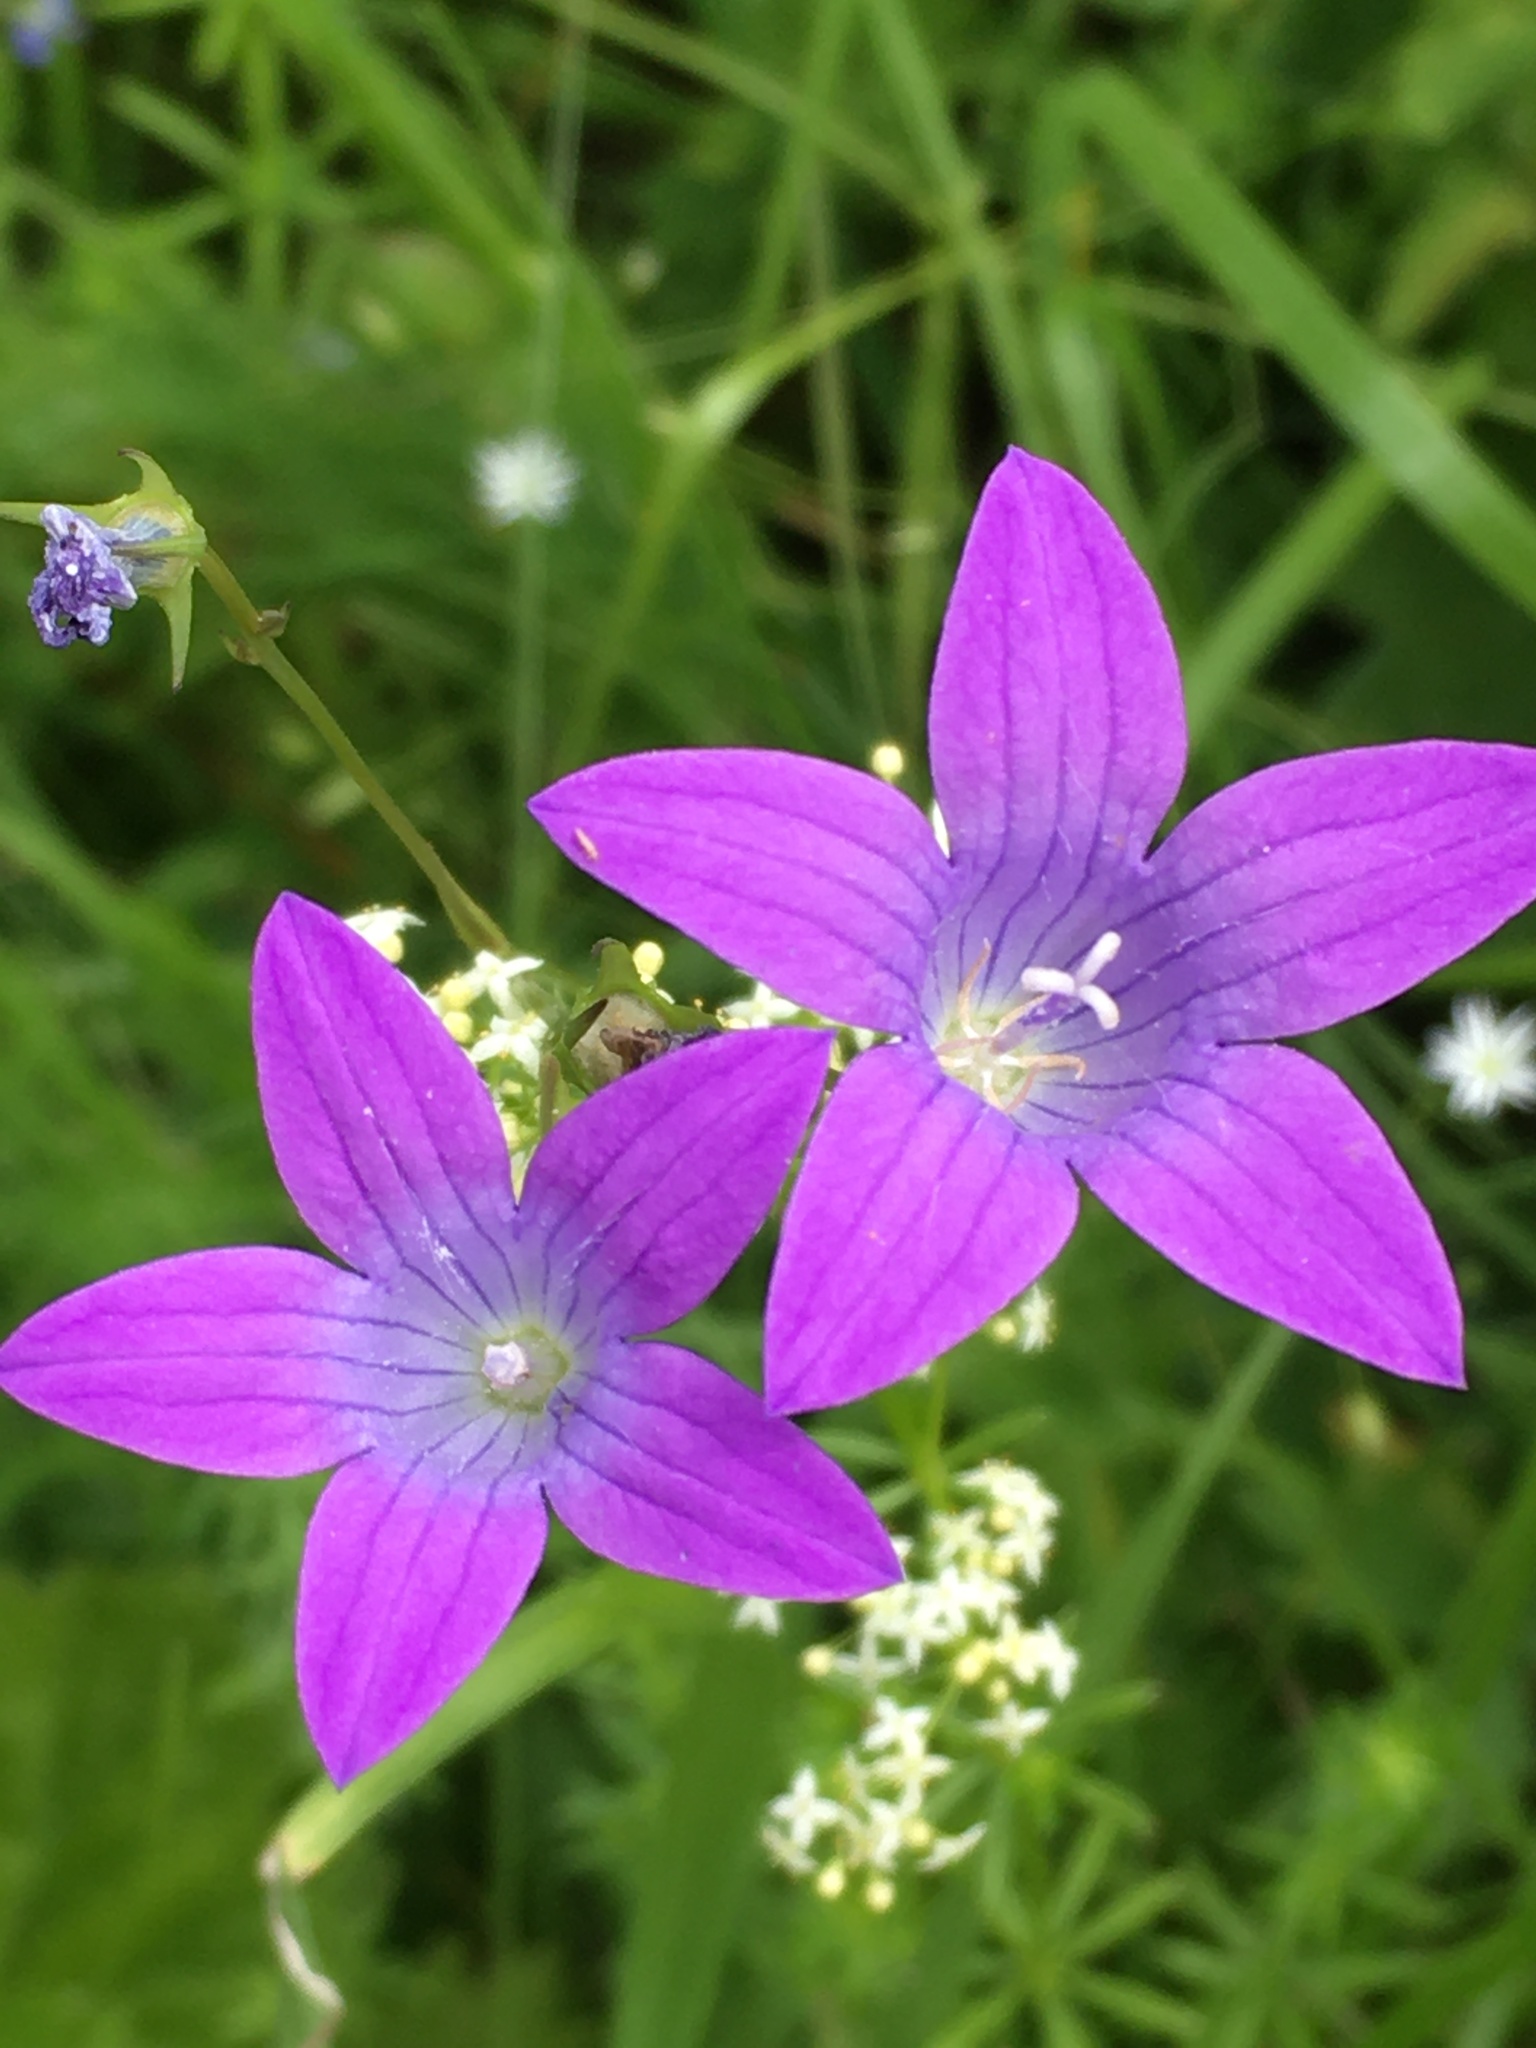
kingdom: Plantae
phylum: Tracheophyta
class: Magnoliopsida
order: Asterales
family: Campanulaceae
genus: Campanula
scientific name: Campanula patula
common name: Spreading bellflower
